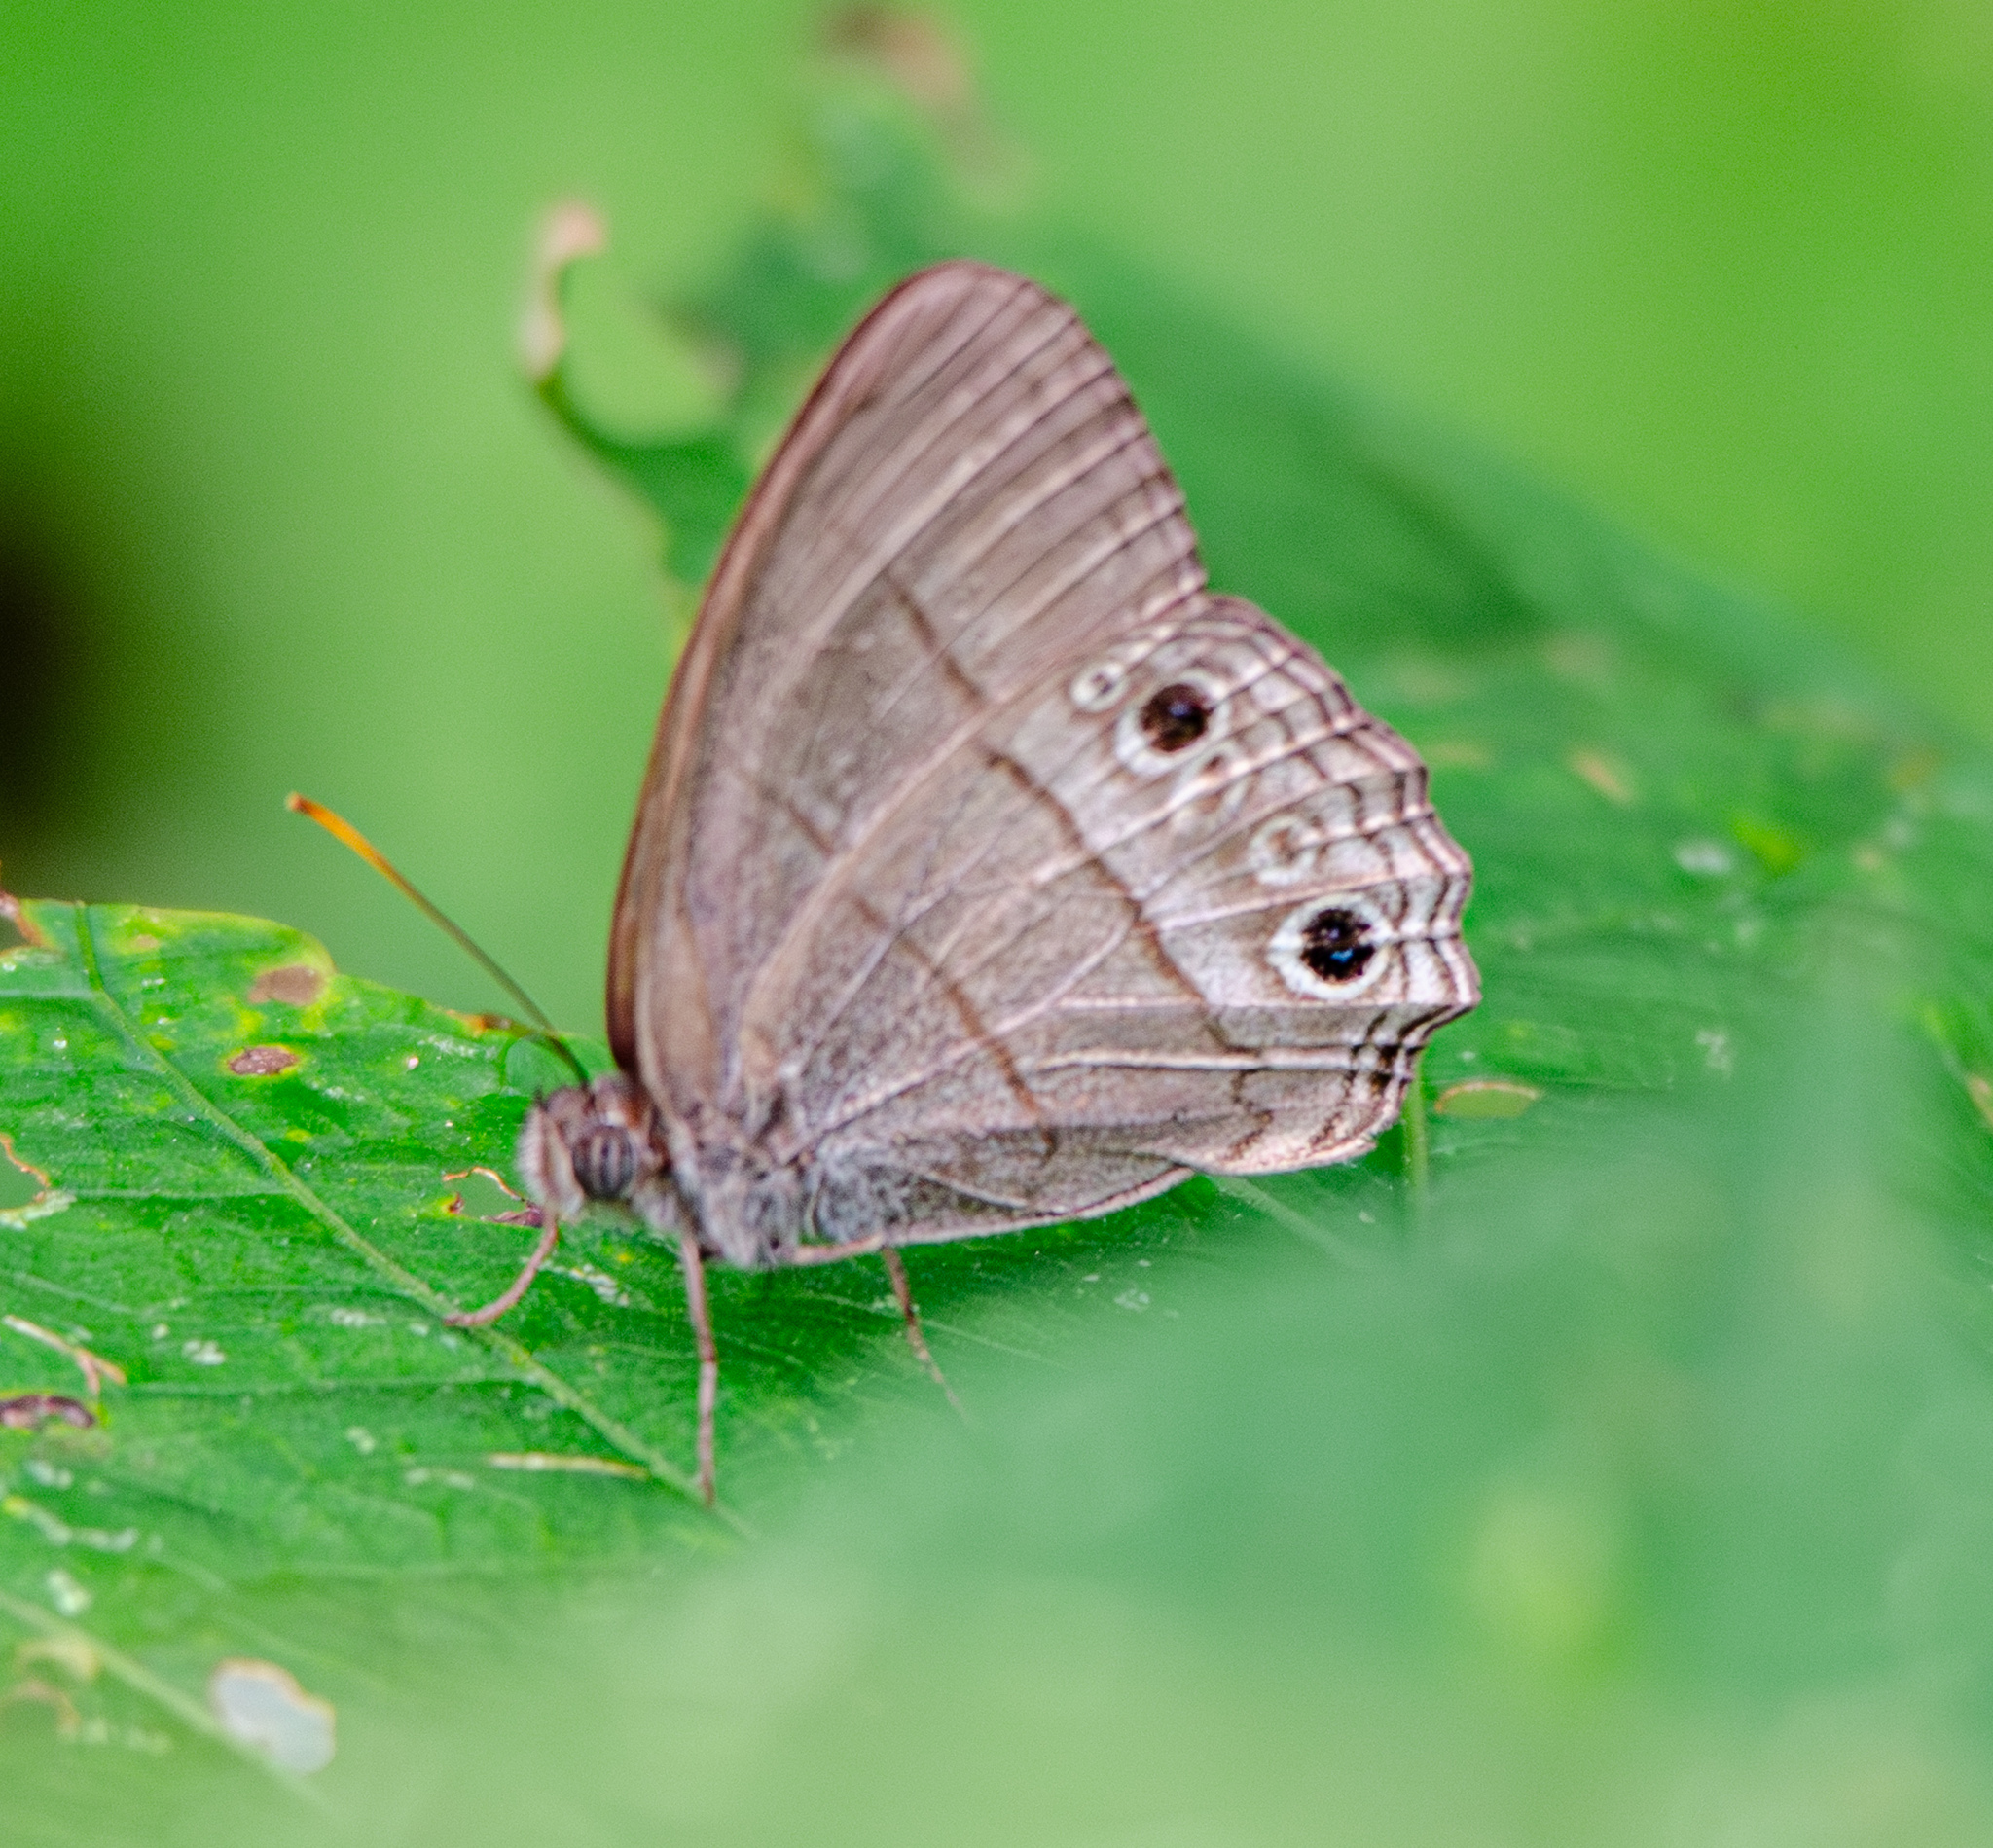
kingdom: Animalia
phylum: Arthropoda
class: Insecta
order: Lepidoptera
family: Nymphalidae
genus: Vareuptychia
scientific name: Vareuptychia similis
